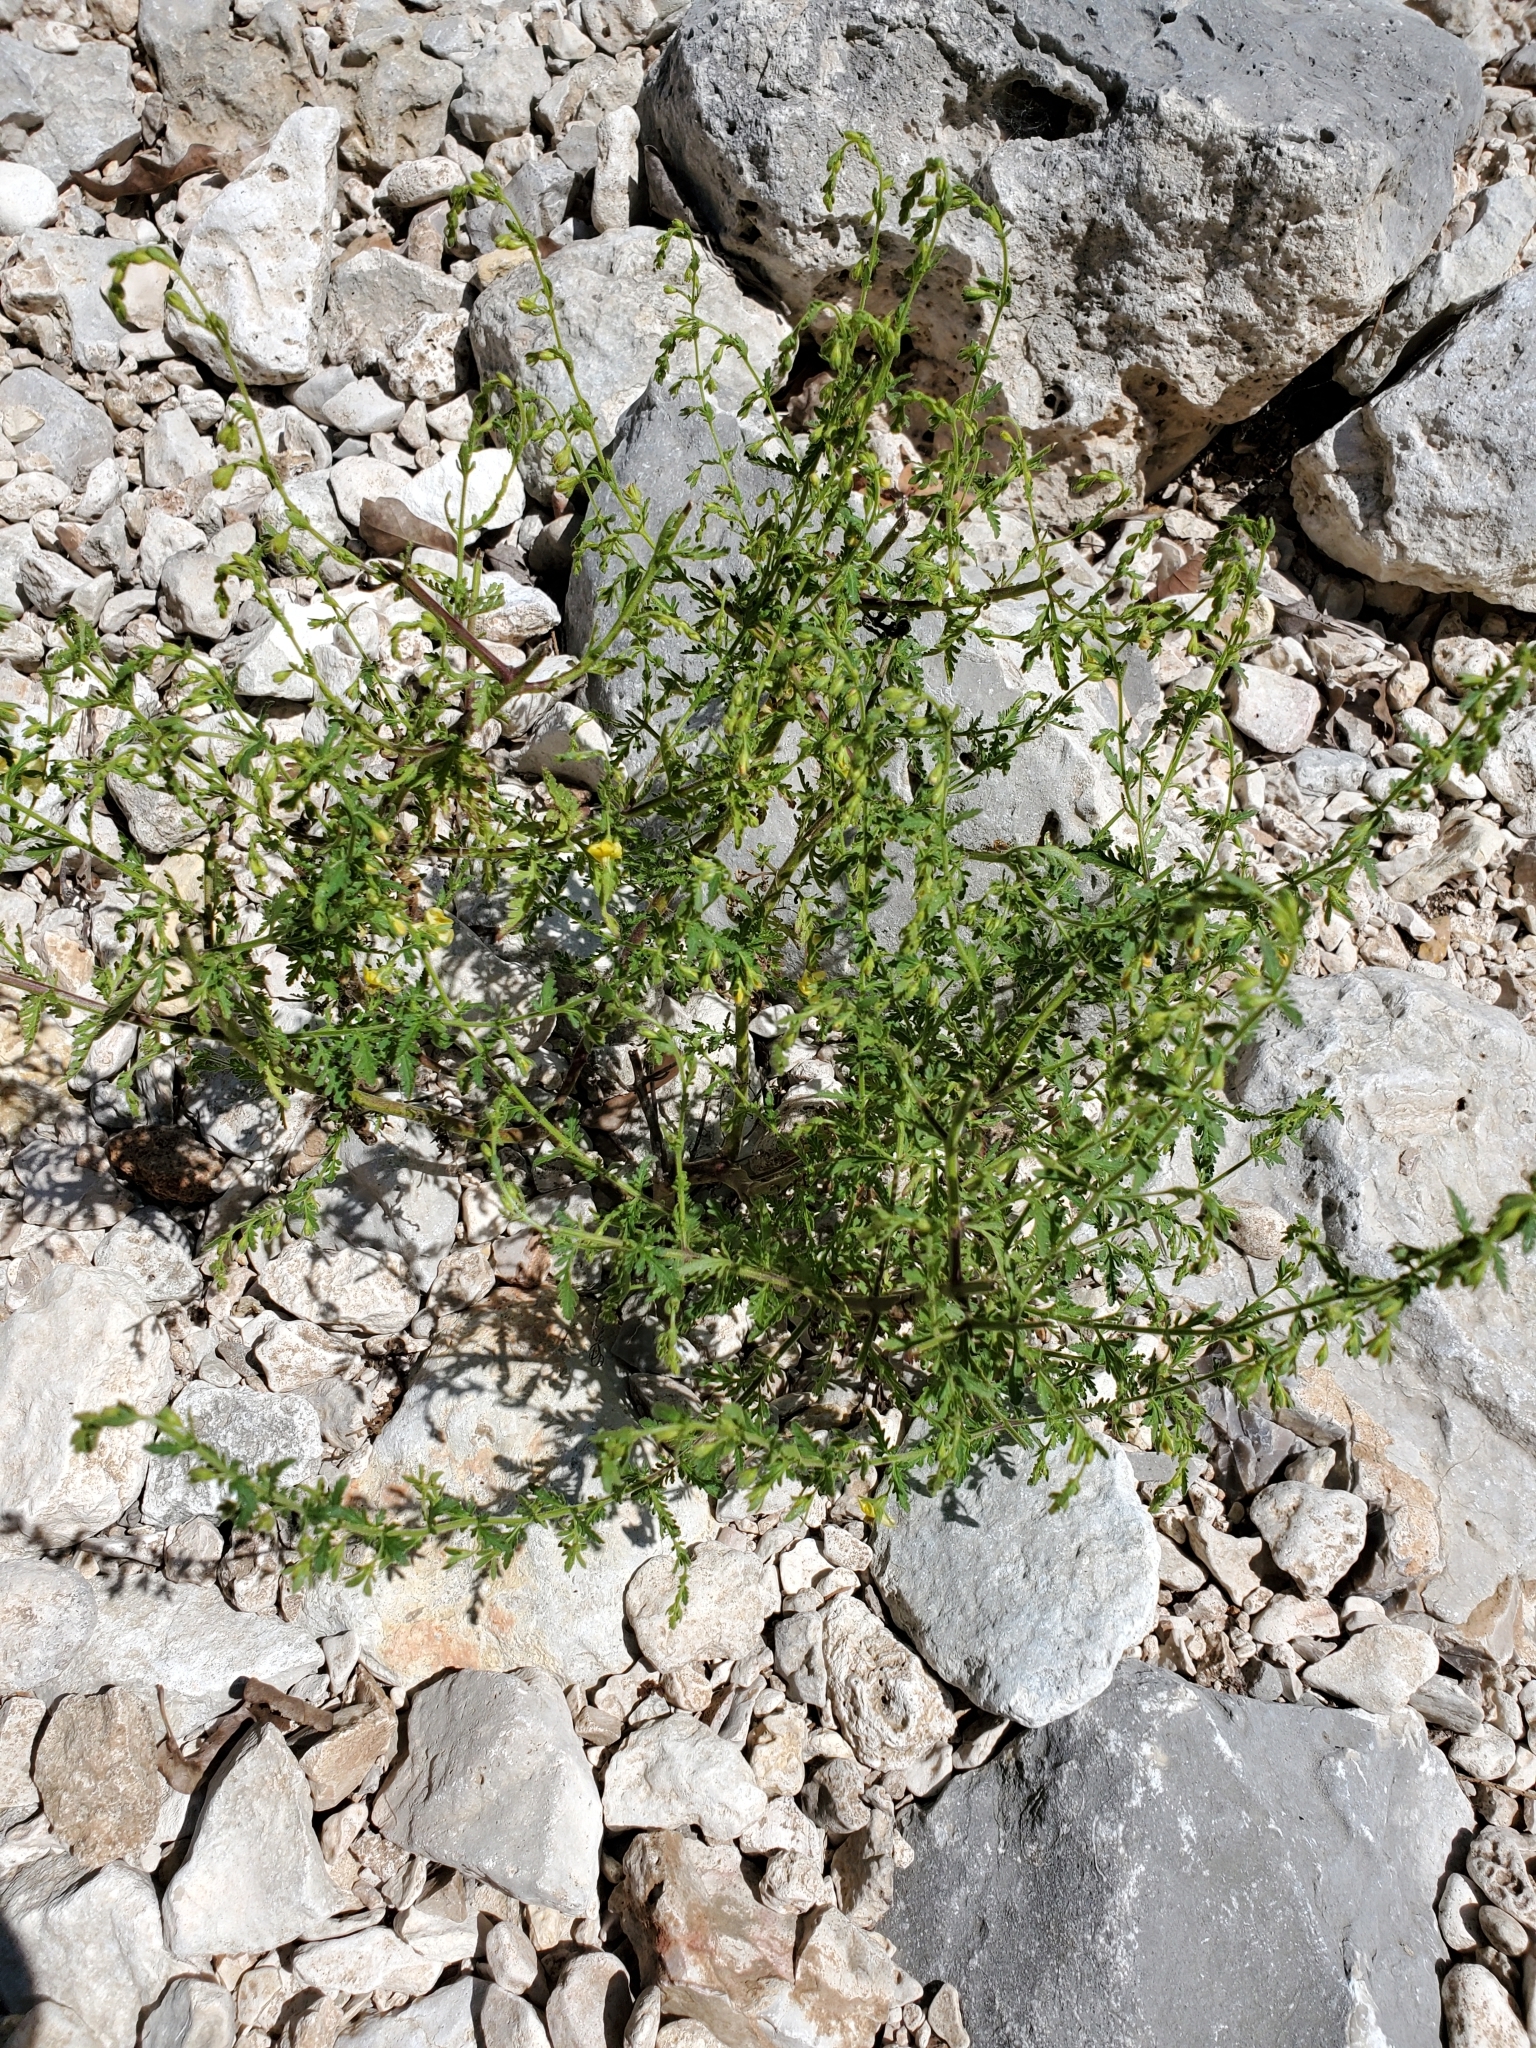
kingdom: Plantae
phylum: Tracheophyta
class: Magnoliopsida
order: Lamiales
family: Orobanchaceae
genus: Seymeria
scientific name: Seymeria bipinnatisecta
